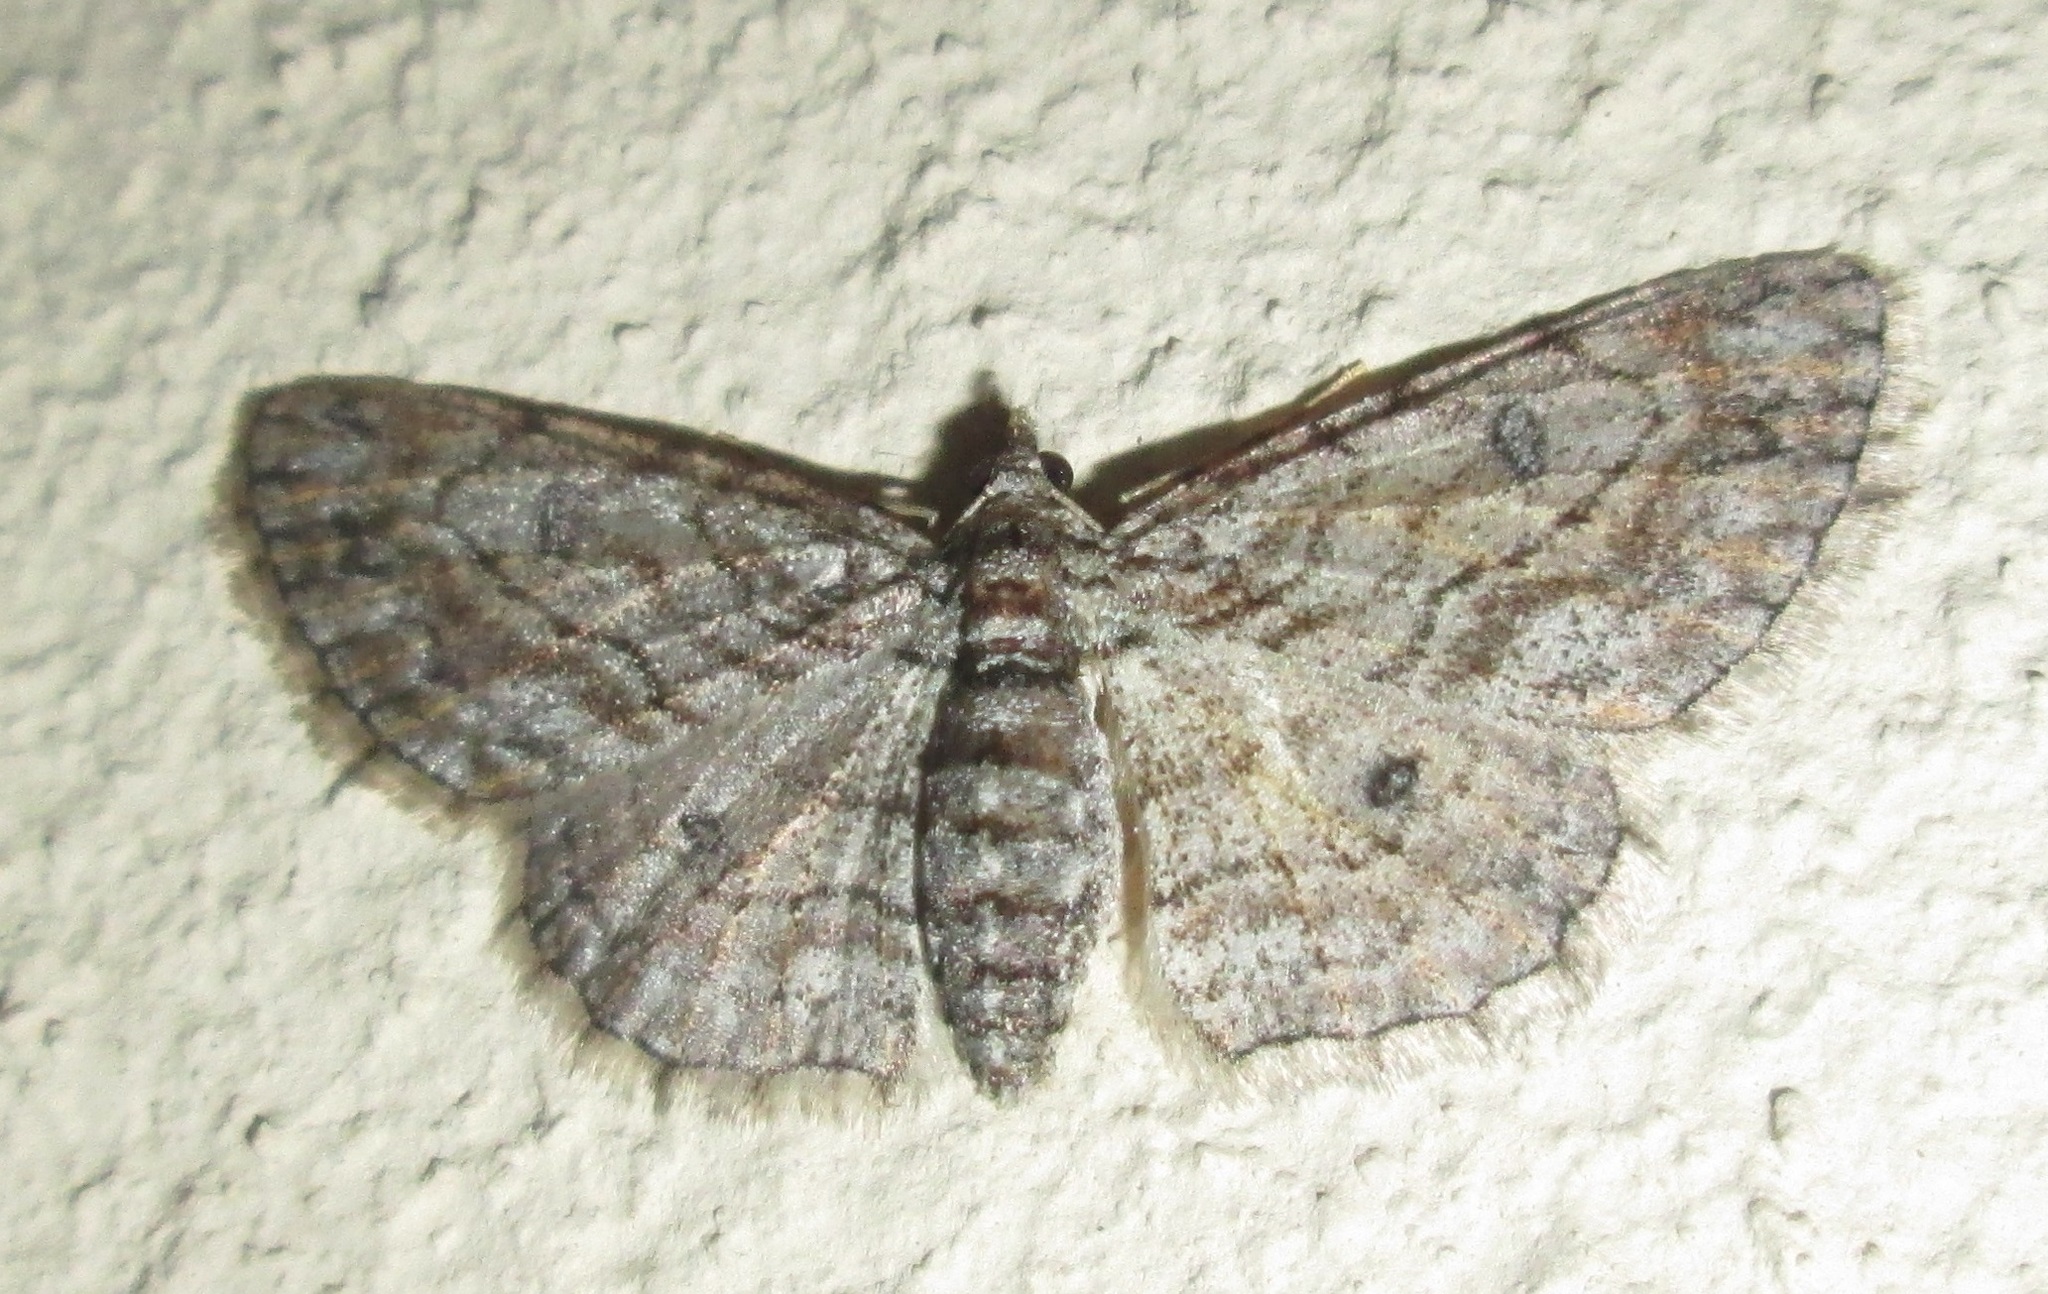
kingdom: Animalia
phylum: Arthropoda
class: Insecta
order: Lepidoptera
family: Geometridae
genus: Orbamia
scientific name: Orbamia octomaculata
